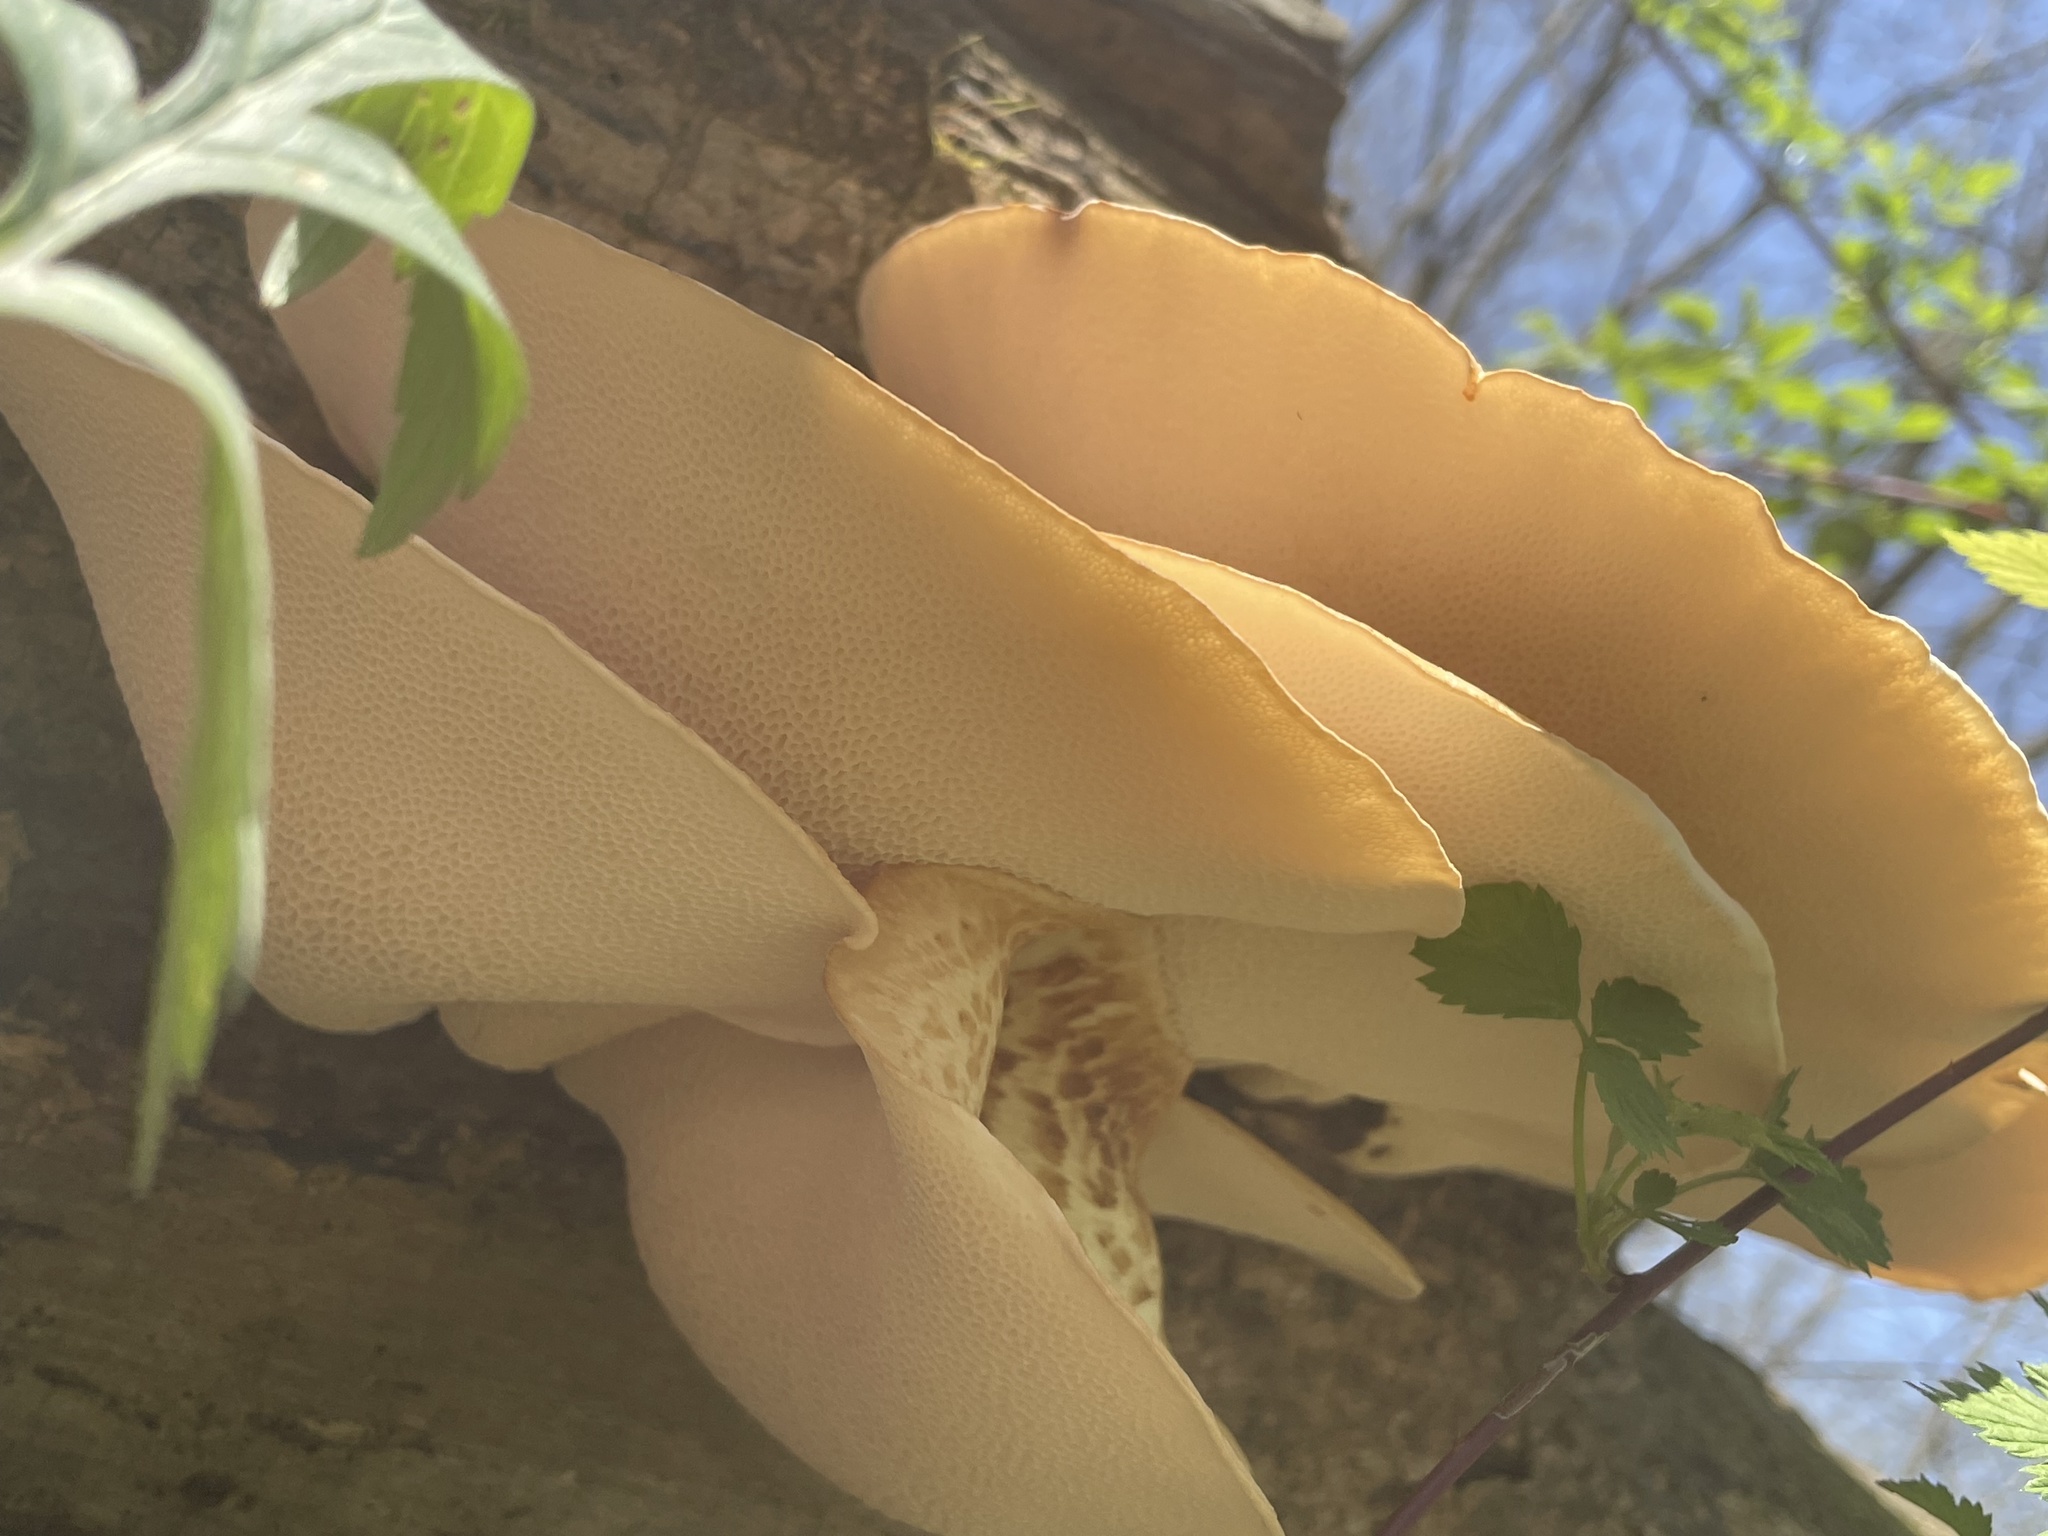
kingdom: Fungi
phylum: Basidiomycota
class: Agaricomycetes
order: Polyporales
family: Polyporaceae
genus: Cerioporus
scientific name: Cerioporus squamosus
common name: Dryad's saddle
